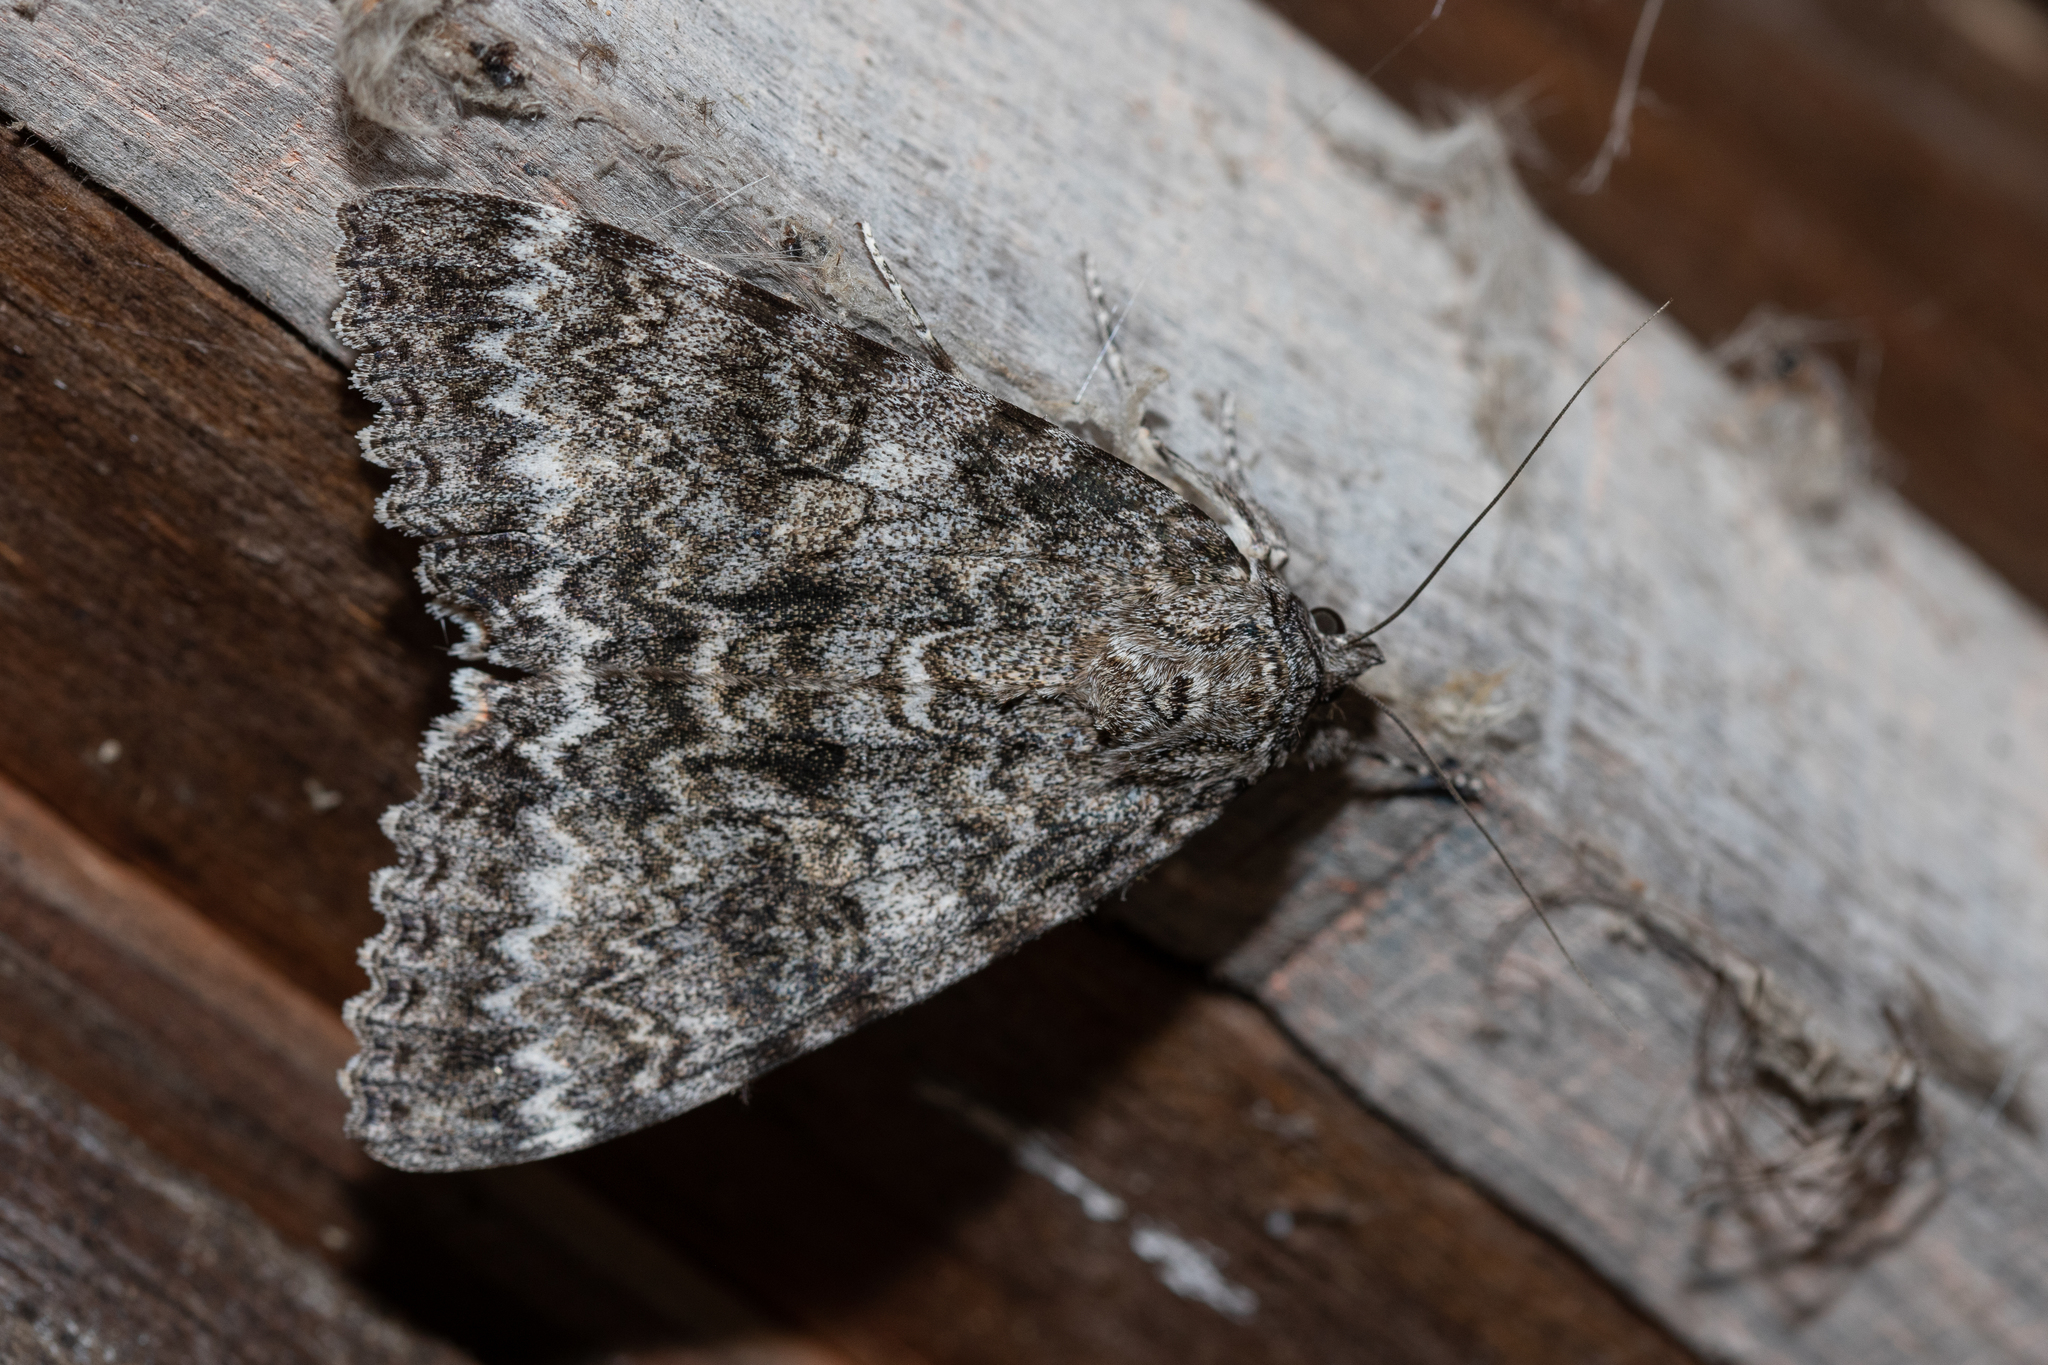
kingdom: Animalia
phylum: Arthropoda
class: Insecta
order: Lepidoptera
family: Erebidae
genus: Catocala
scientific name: Catocala unijuga
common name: Once-married underwing
